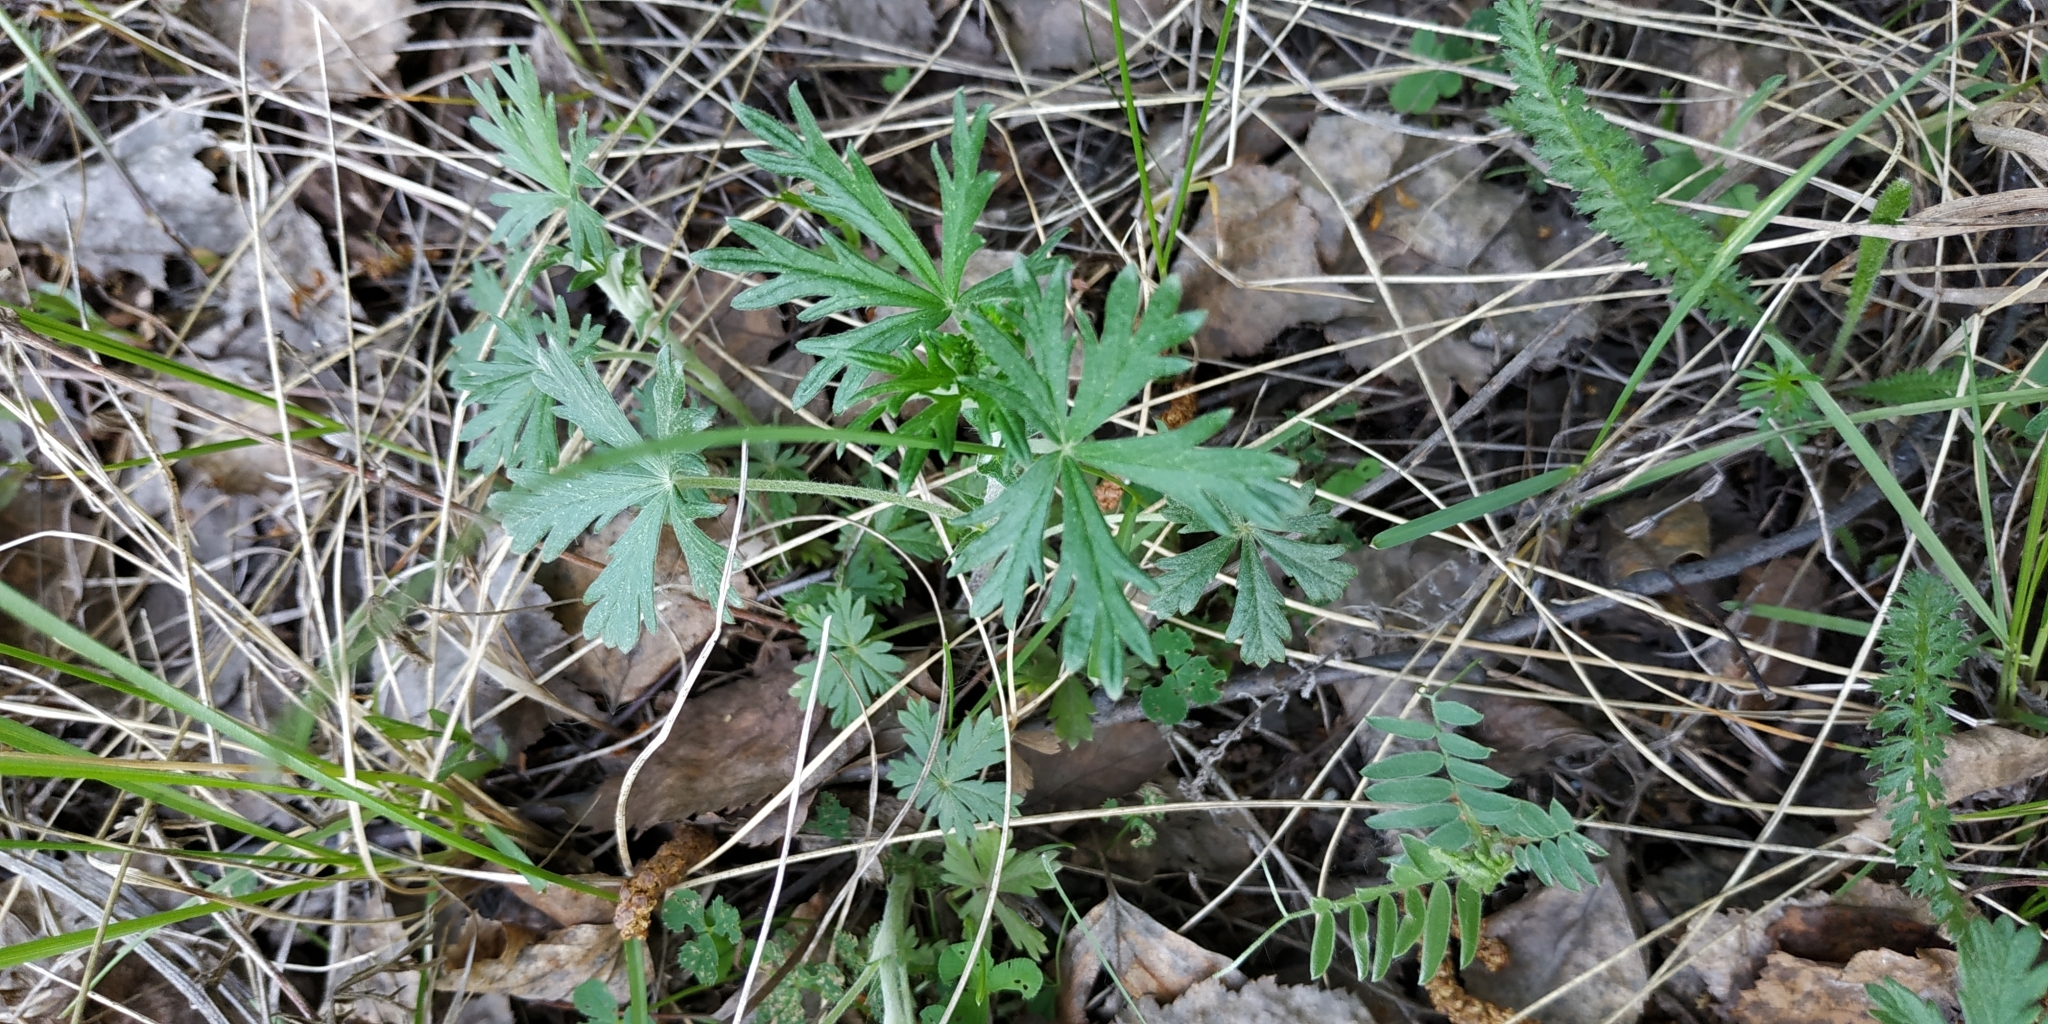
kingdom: Plantae
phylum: Tracheophyta
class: Magnoliopsida
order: Rosales
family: Rosaceae
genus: Potentilla
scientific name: Potentilla argentea
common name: Hoary cinquefoil
